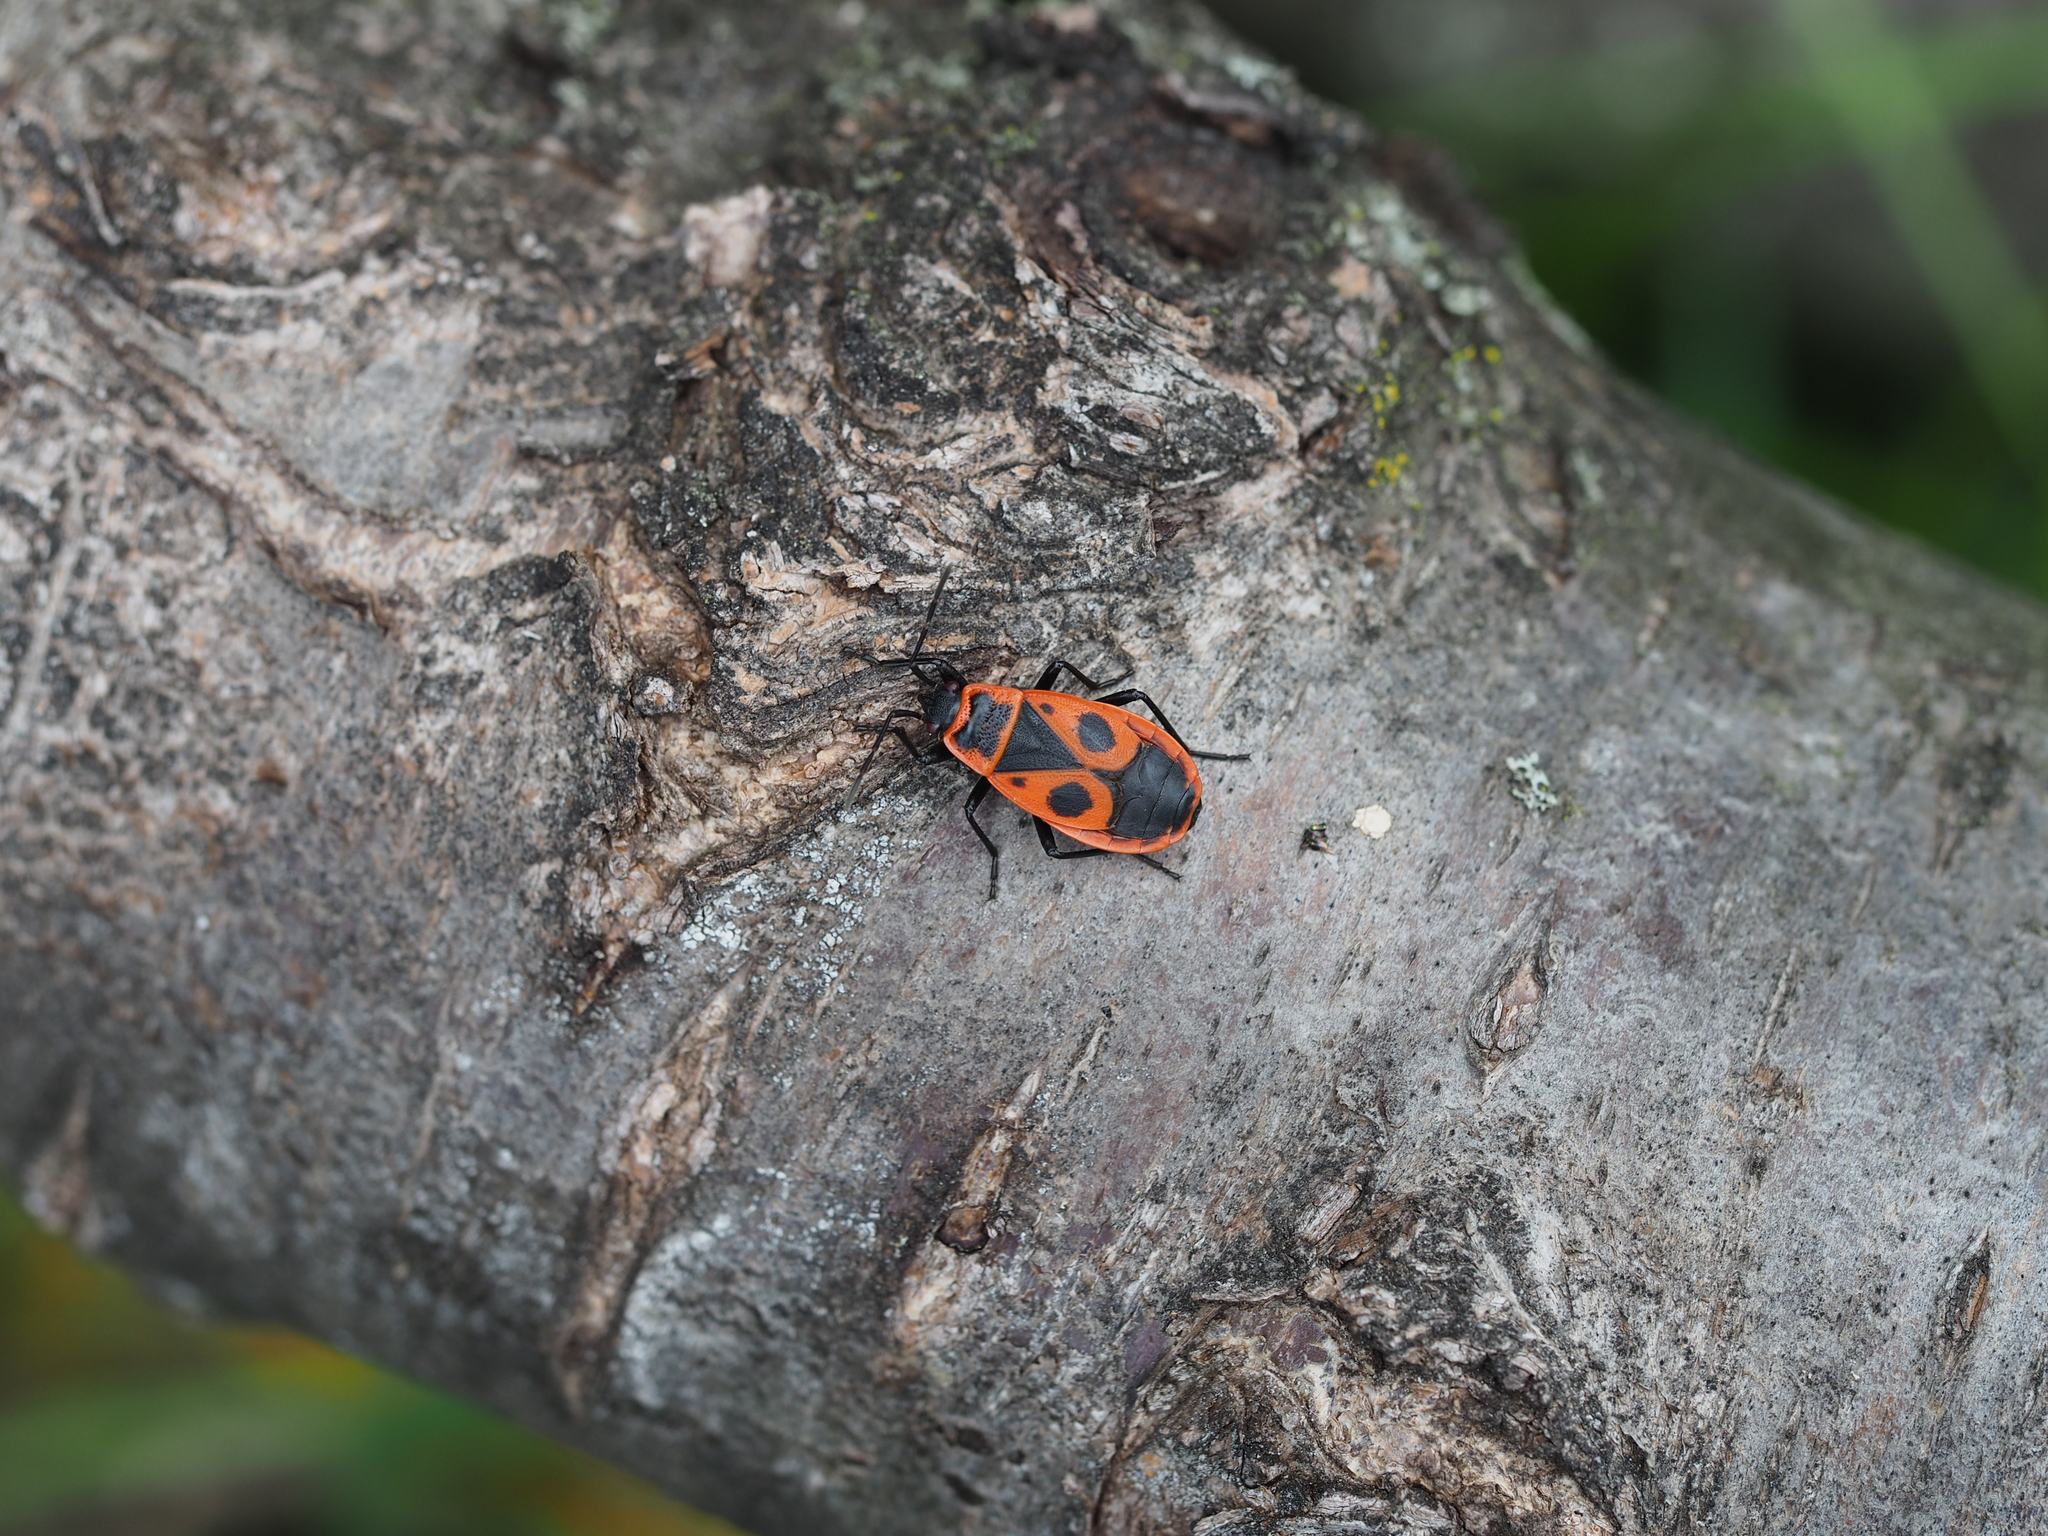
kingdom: Animalia
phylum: Arthropoda
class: Insecta
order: Hemiptera
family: Pyrrhocoridae
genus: Pyrrhocoris
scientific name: Pyrrhocoris apterus
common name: Firebug
